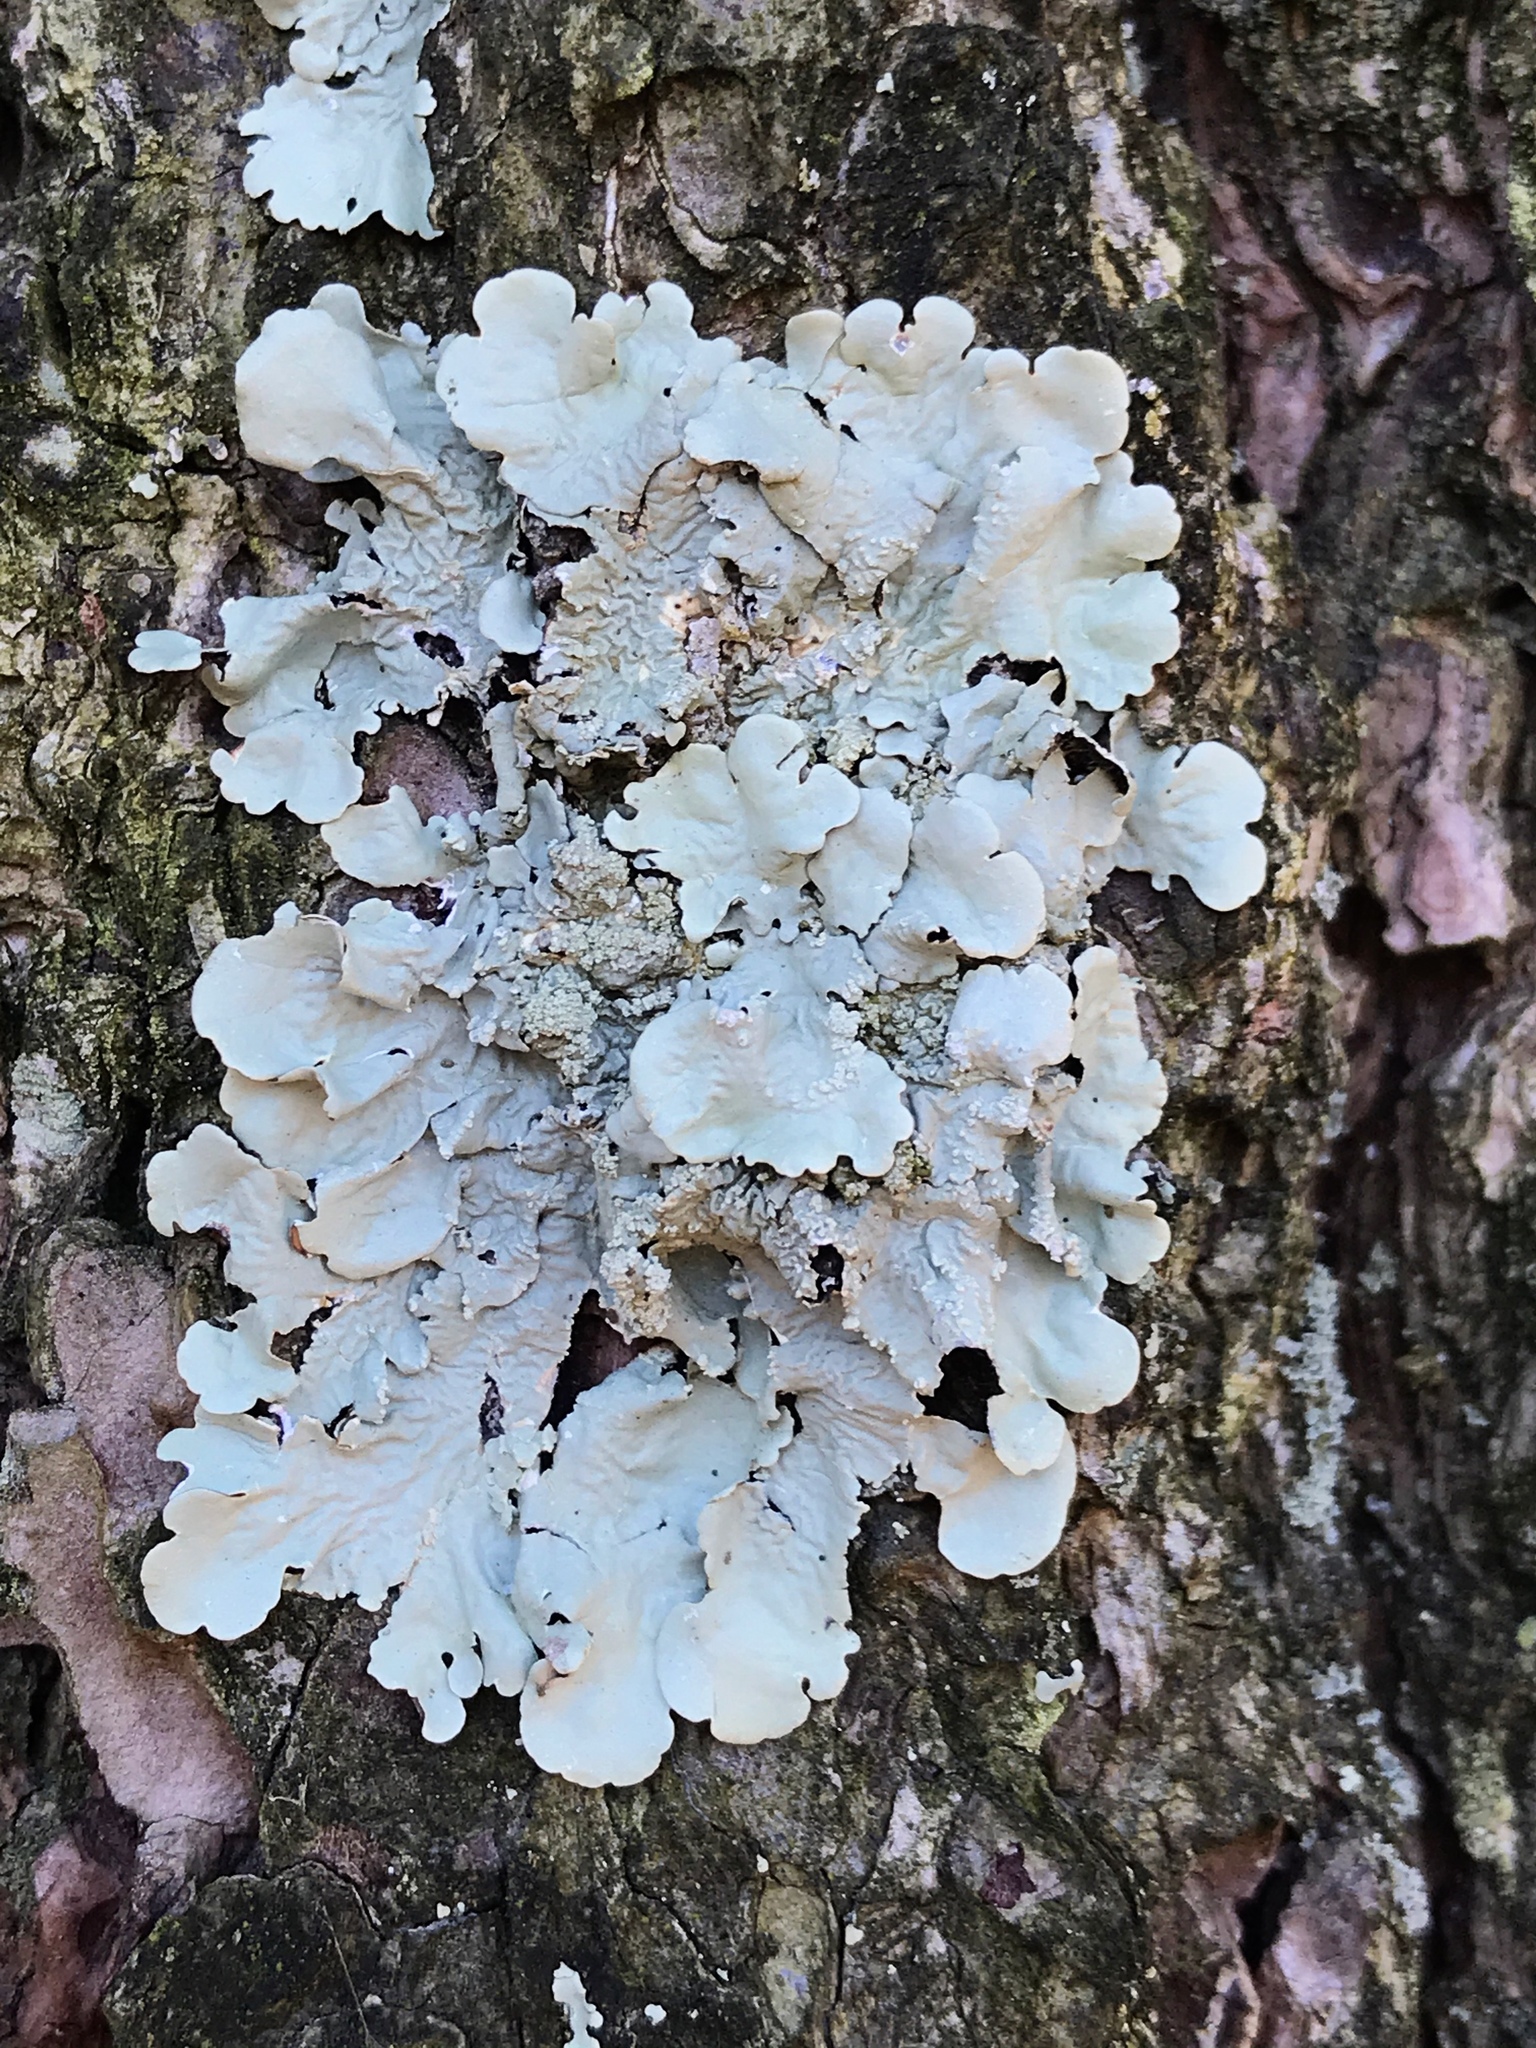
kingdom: Fungi
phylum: Ascomycota
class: Lecanoromycetes
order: Lecanorales
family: Parmeliaceae
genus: Flavoparmelia
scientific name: Flavoparmelia caperata
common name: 40-mile per hour lichen
